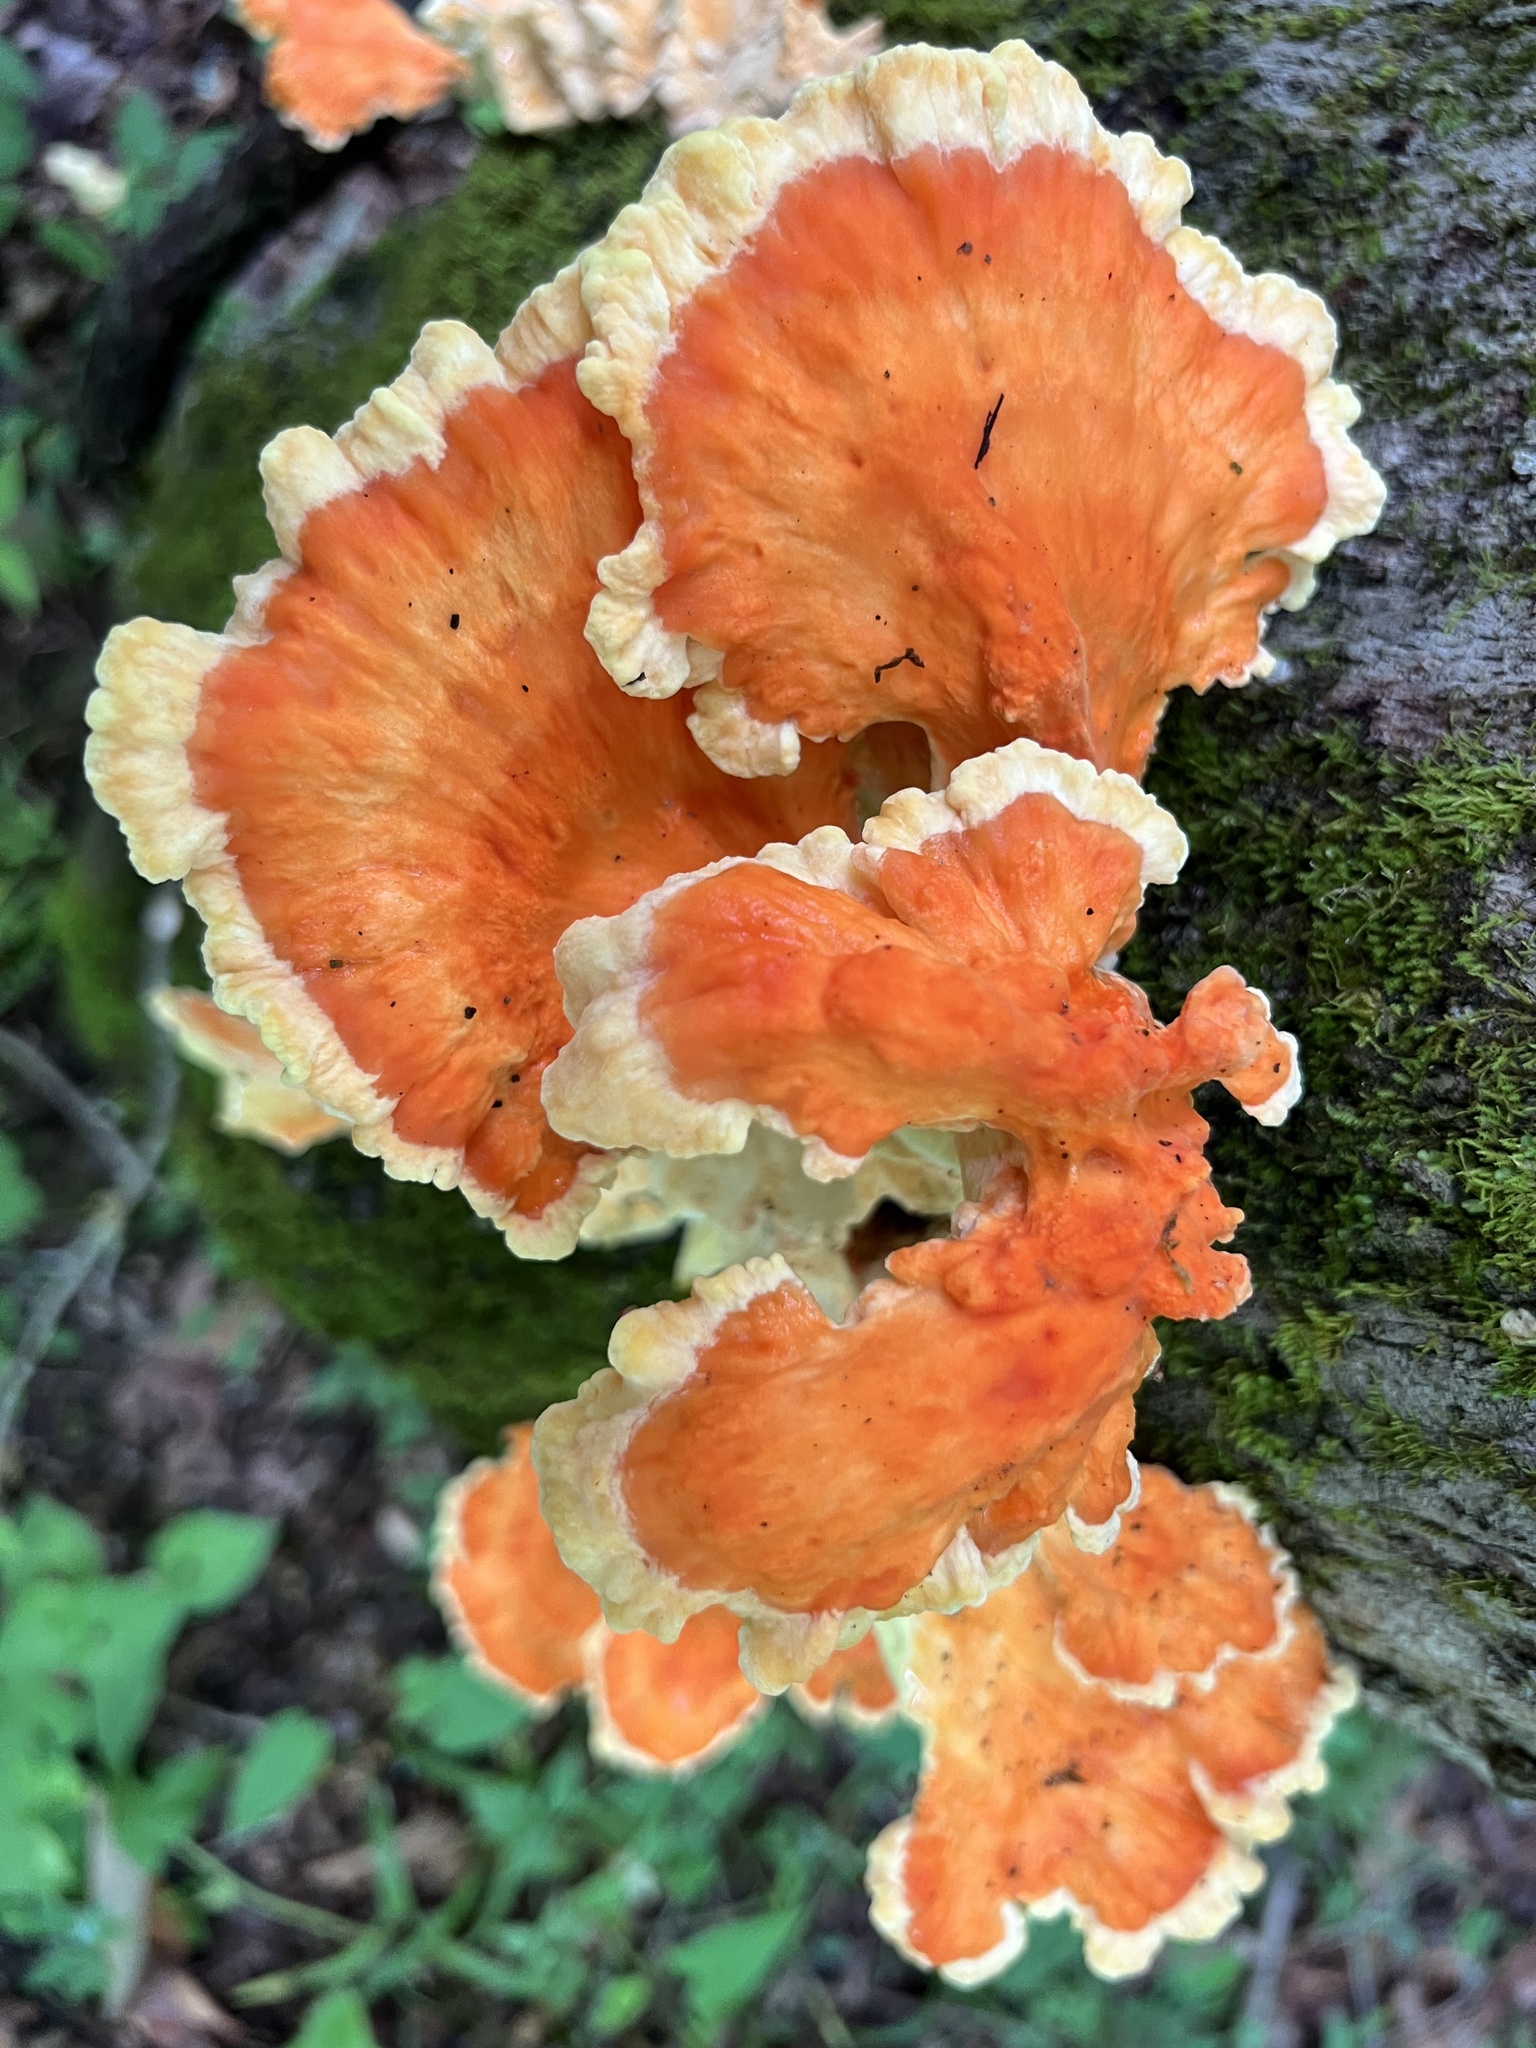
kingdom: Fungi
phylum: Basidiomycota
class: Agaricomycetes
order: Polyporales
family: Laetiporaceae
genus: Laetiporus
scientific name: Laetiporus sulphureus
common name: Chicken of the woods
